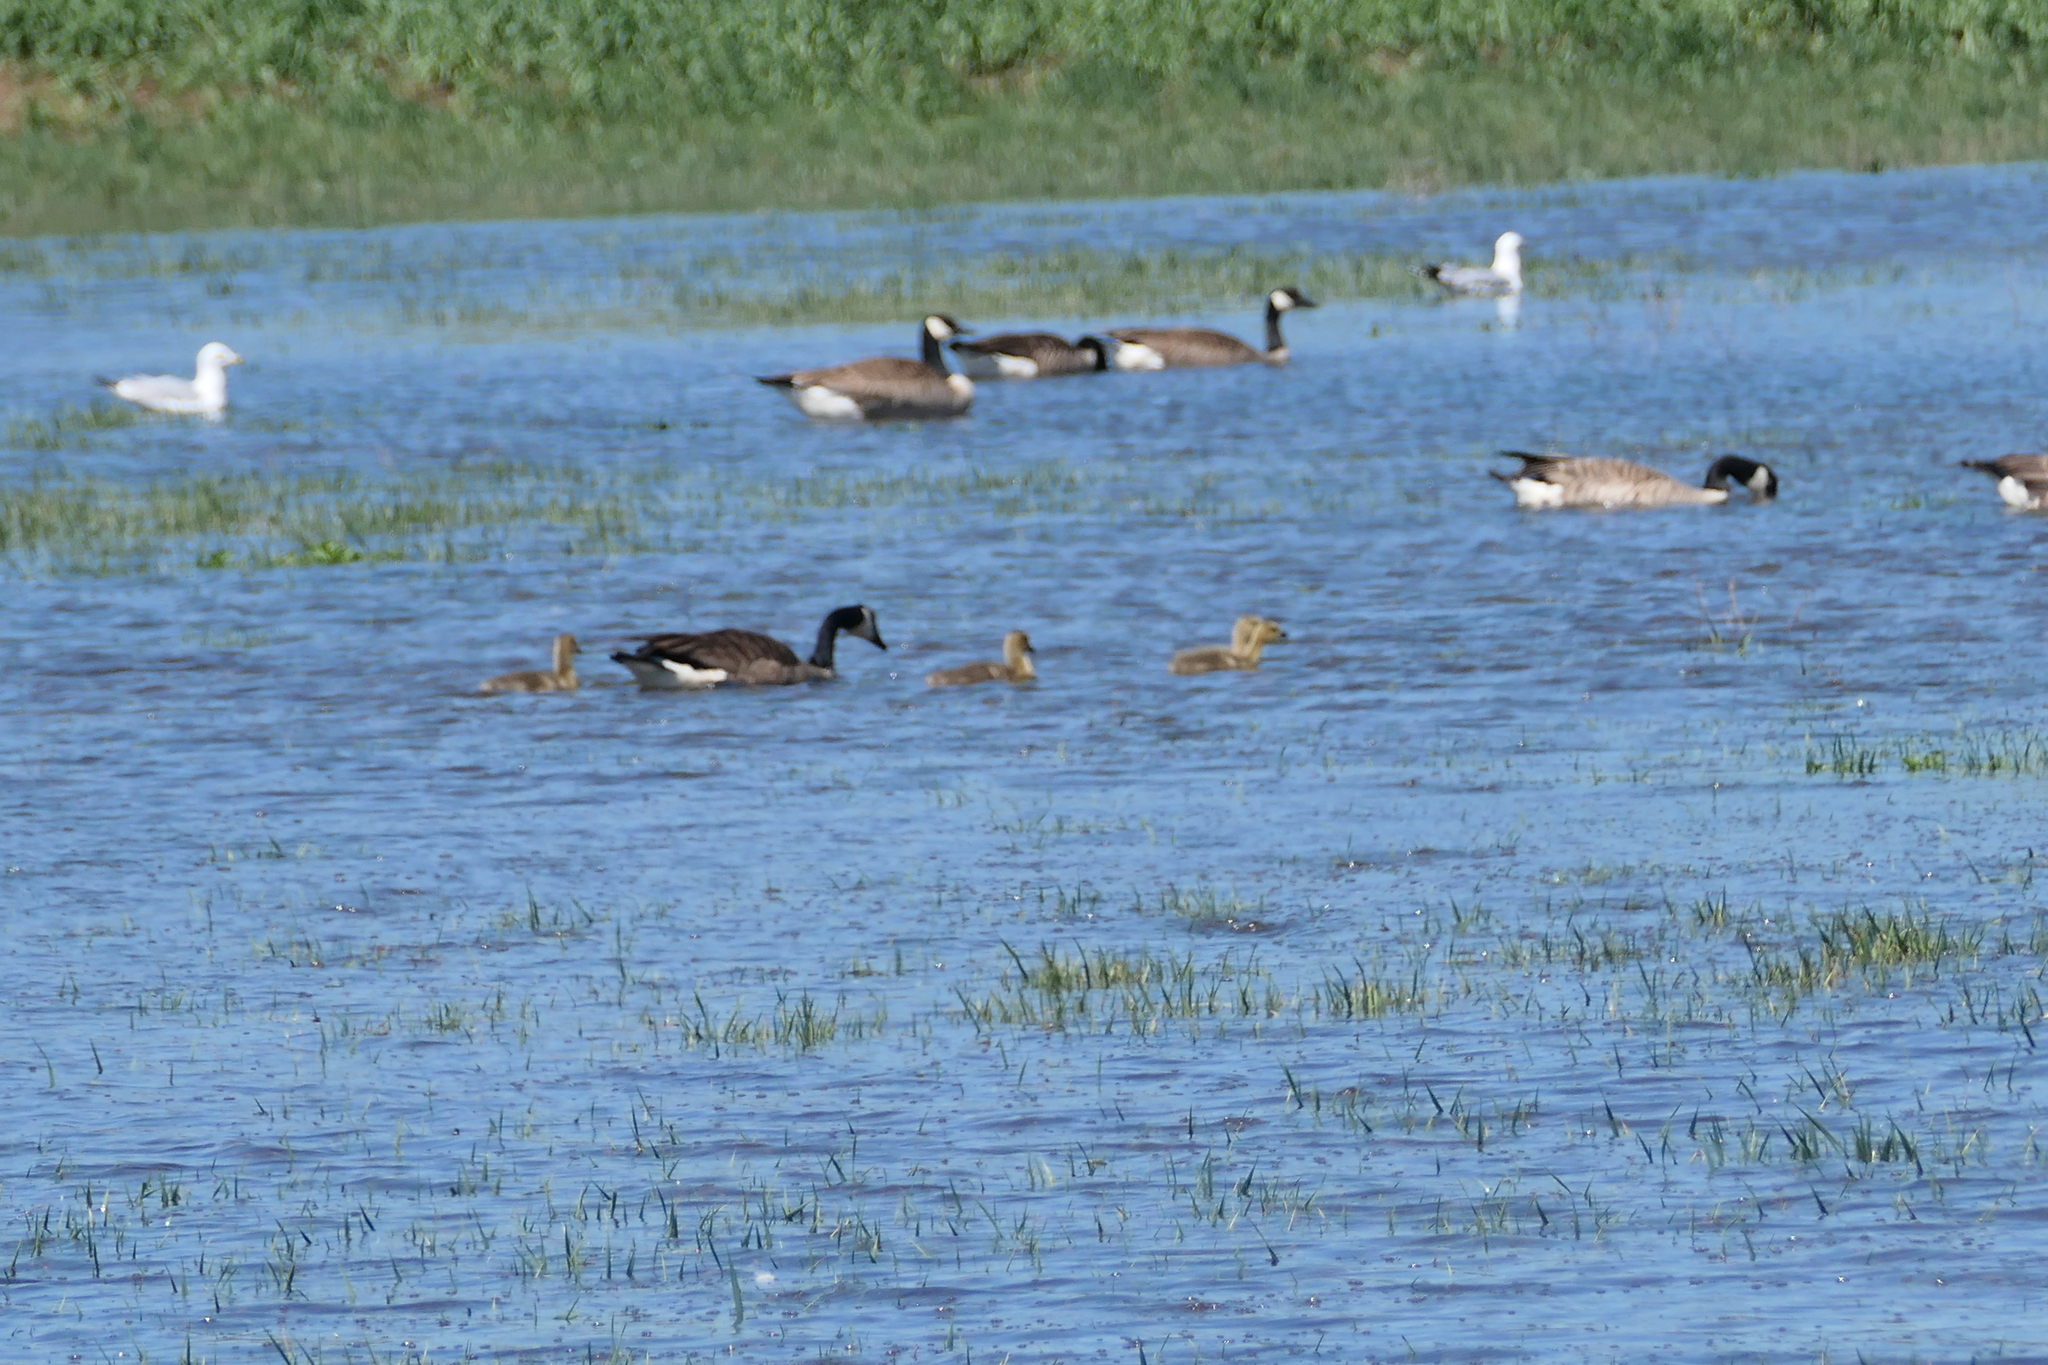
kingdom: Animalia
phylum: Chordata
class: Aves
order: Anseriformes
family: Anatidae
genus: Branta
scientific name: Branta canadensis
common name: Canada goose
